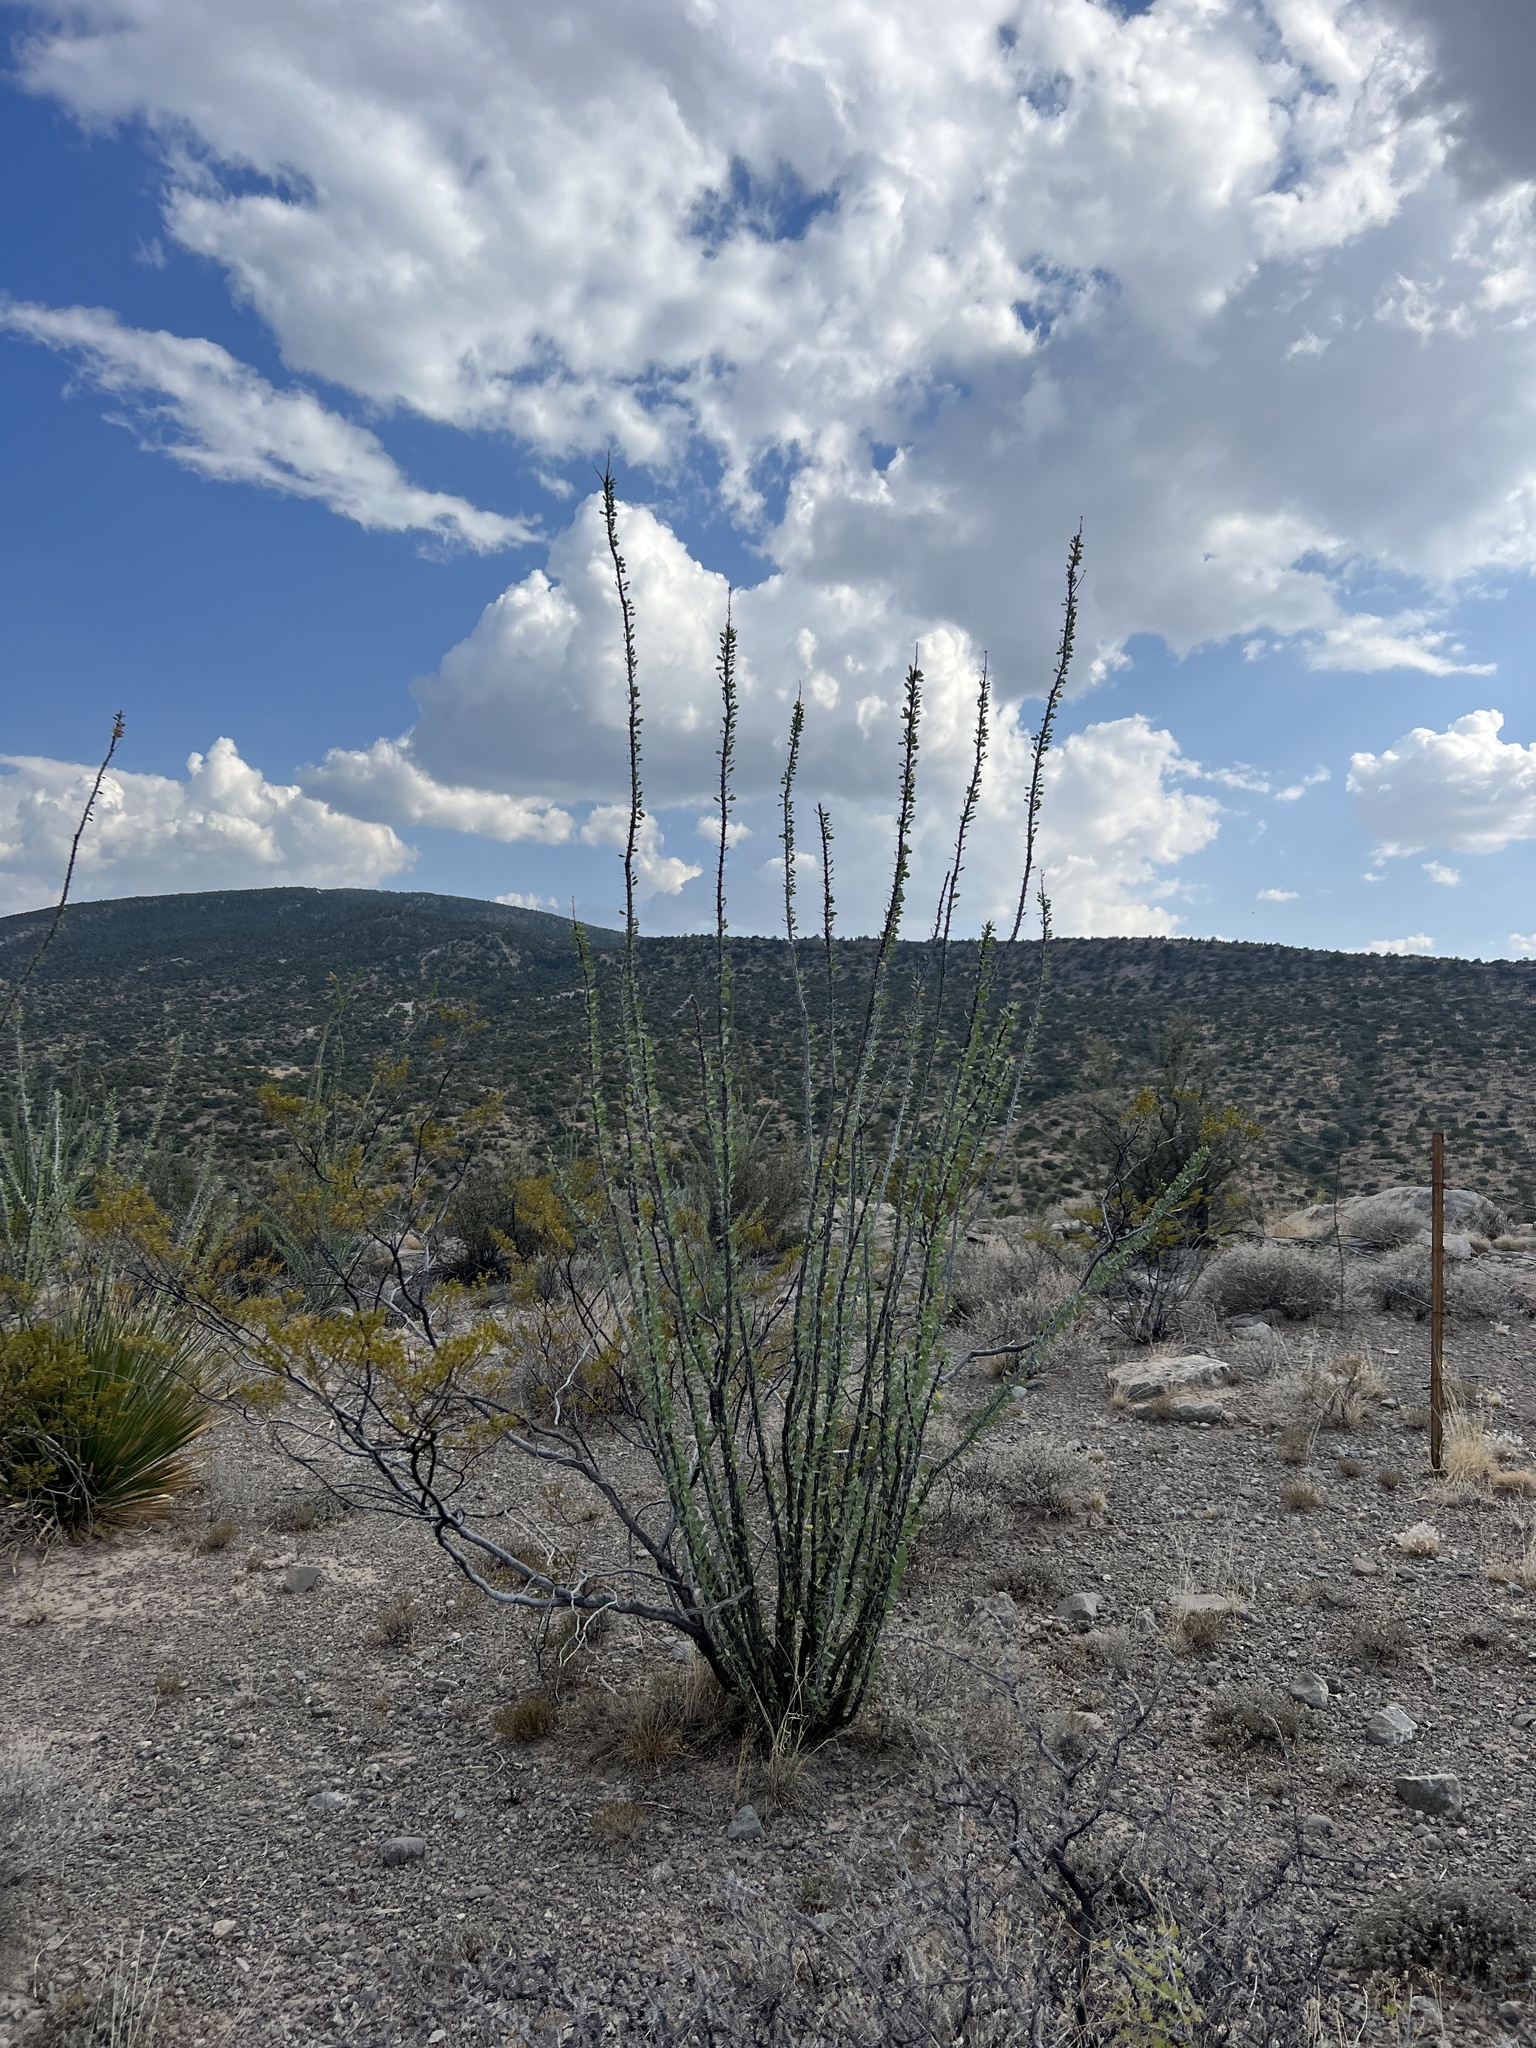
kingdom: Plantae
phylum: Tracheophyta
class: Magnoliopsida
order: Ericales
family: Fouquieriaceae
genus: Fouquieria
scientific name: Fouquieria splendens
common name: Vine-cactus
